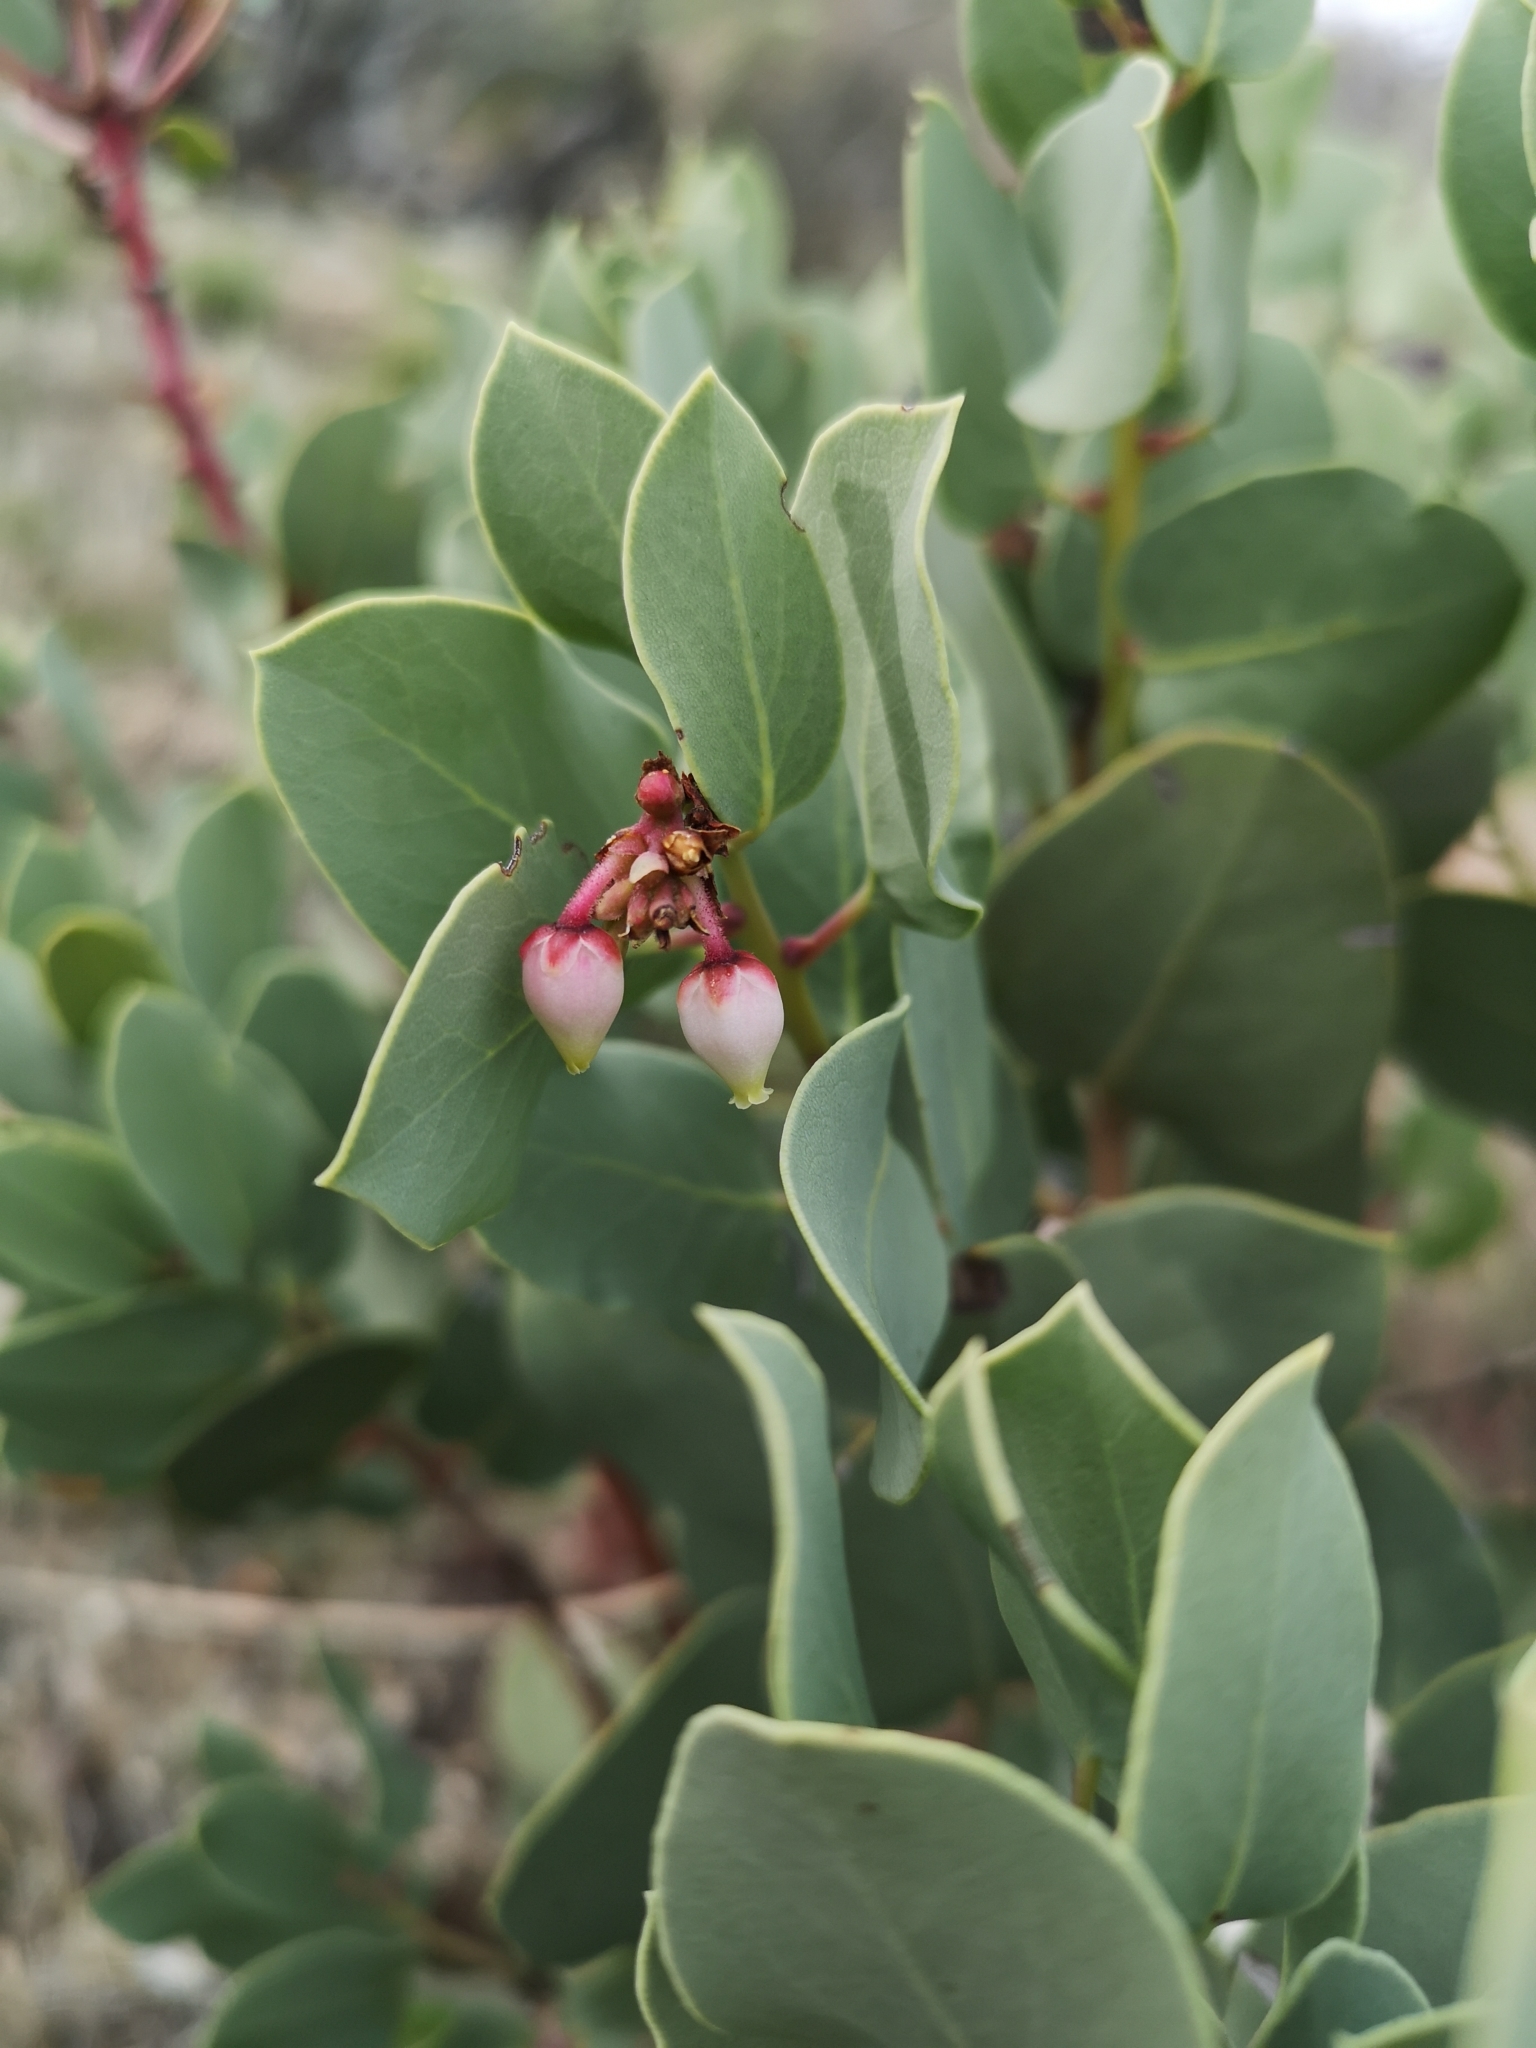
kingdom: Plantae
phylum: Tracheophyta
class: Magnoliopsida
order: Ericales
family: Ericaceae
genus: Arctostaphylos
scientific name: Arctostaphylos glauca
